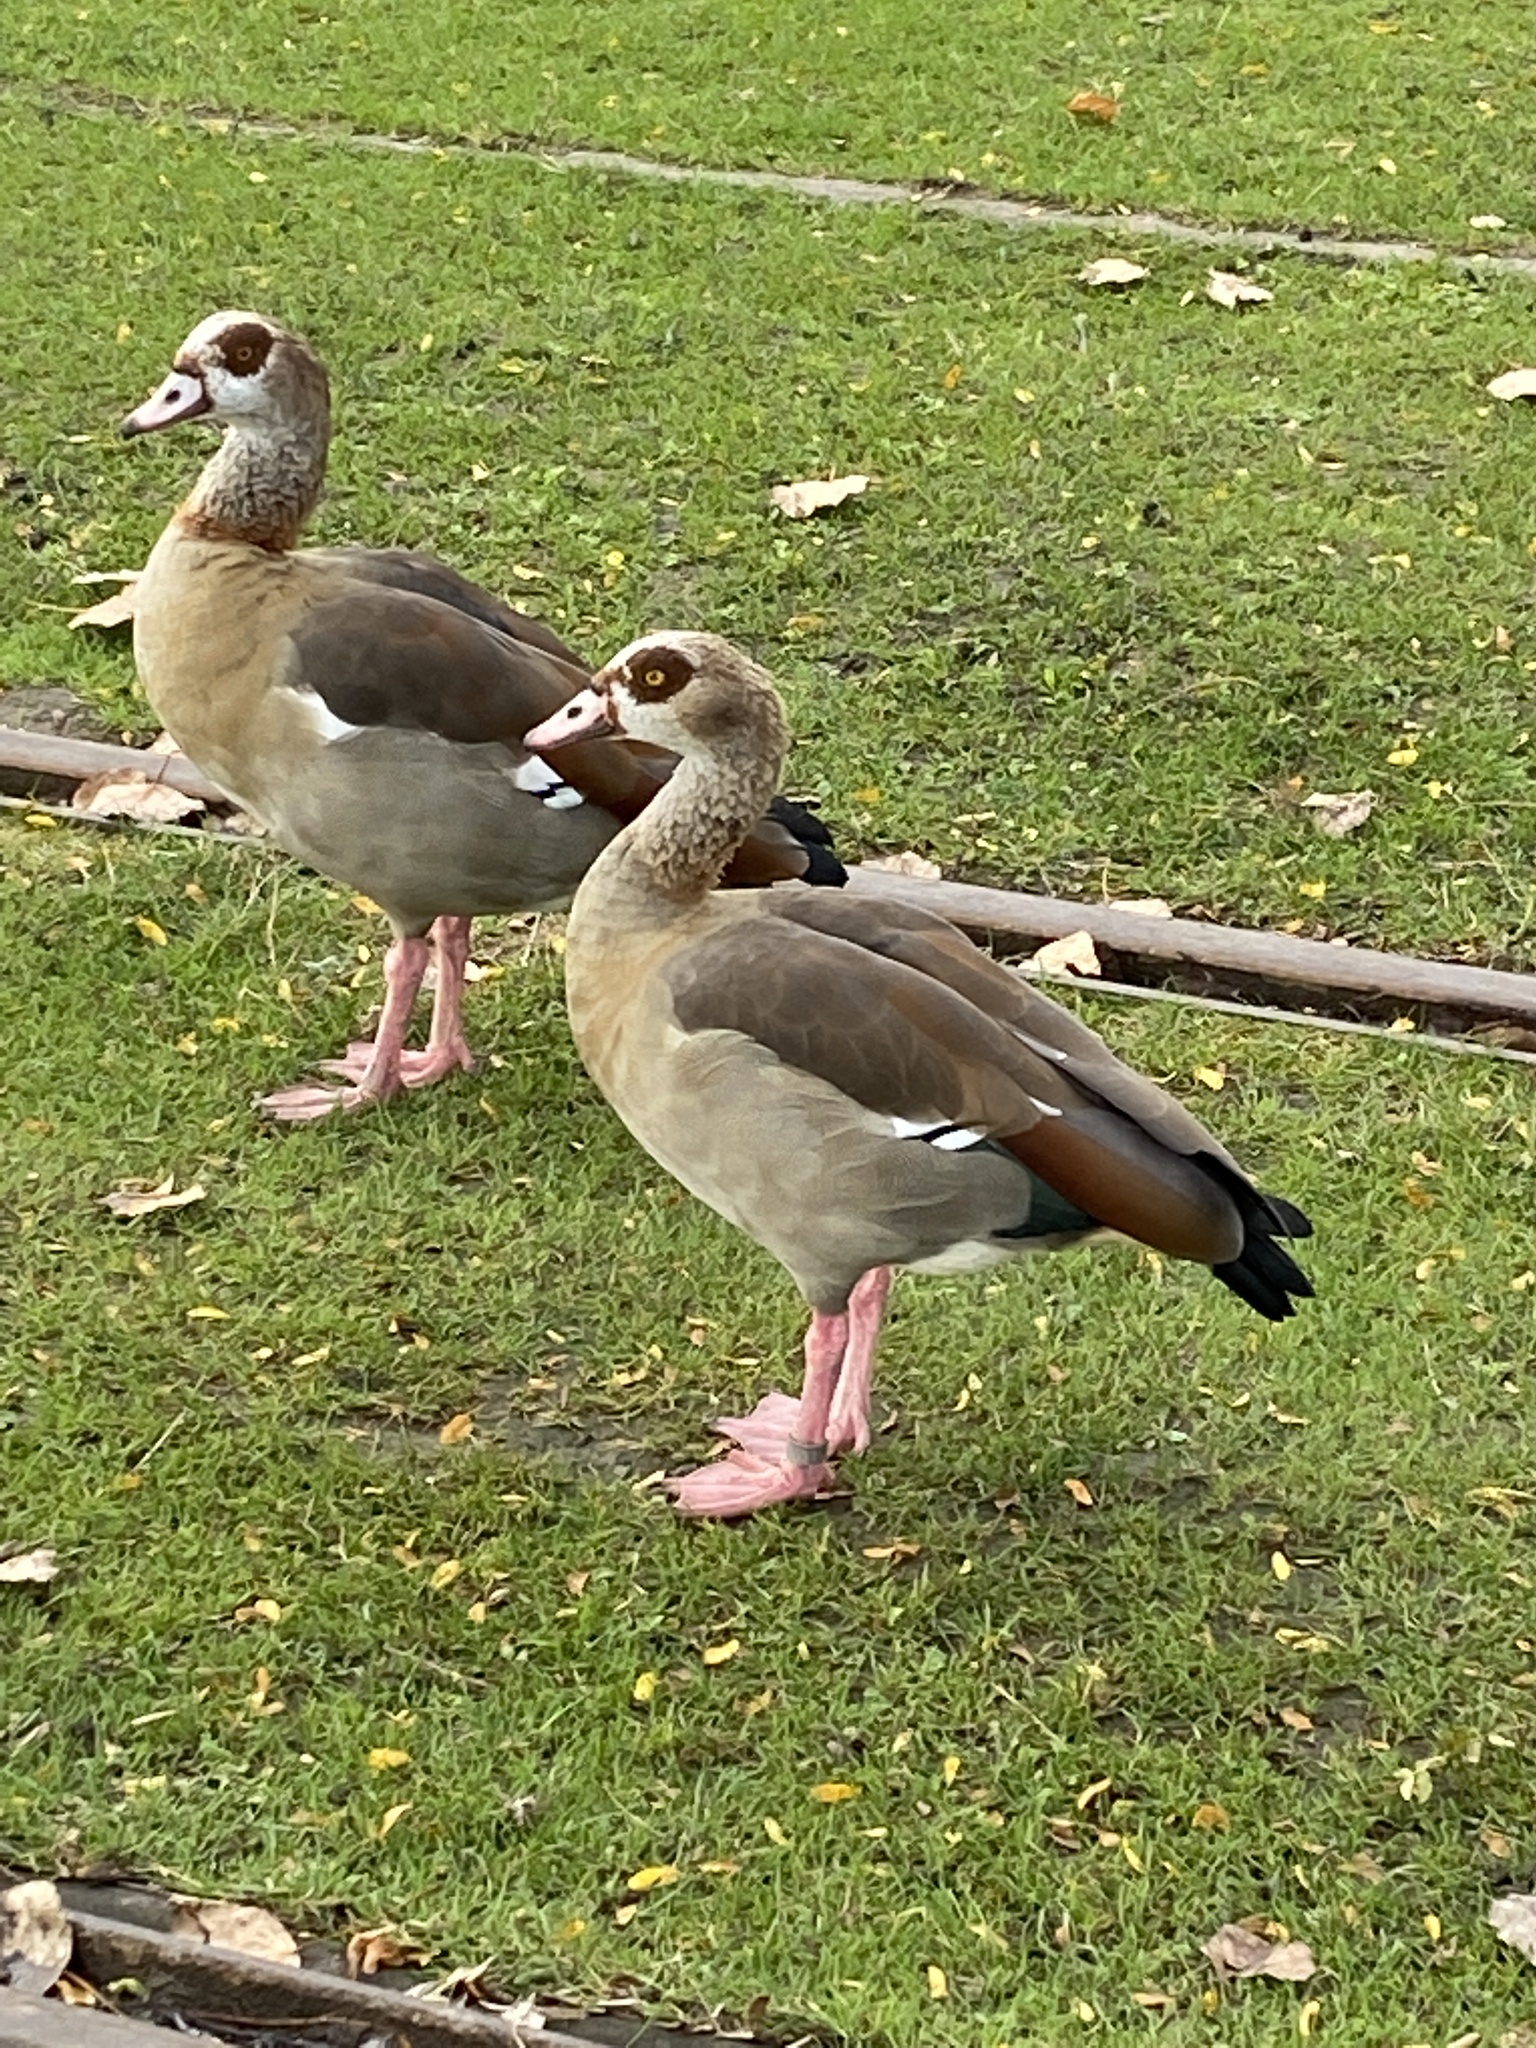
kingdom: Animalia
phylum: Chordata
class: Aves
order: Anseriformes
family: Anatidae
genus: Alopochen
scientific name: Alopochen aegyptiaca
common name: Egyptian goose
